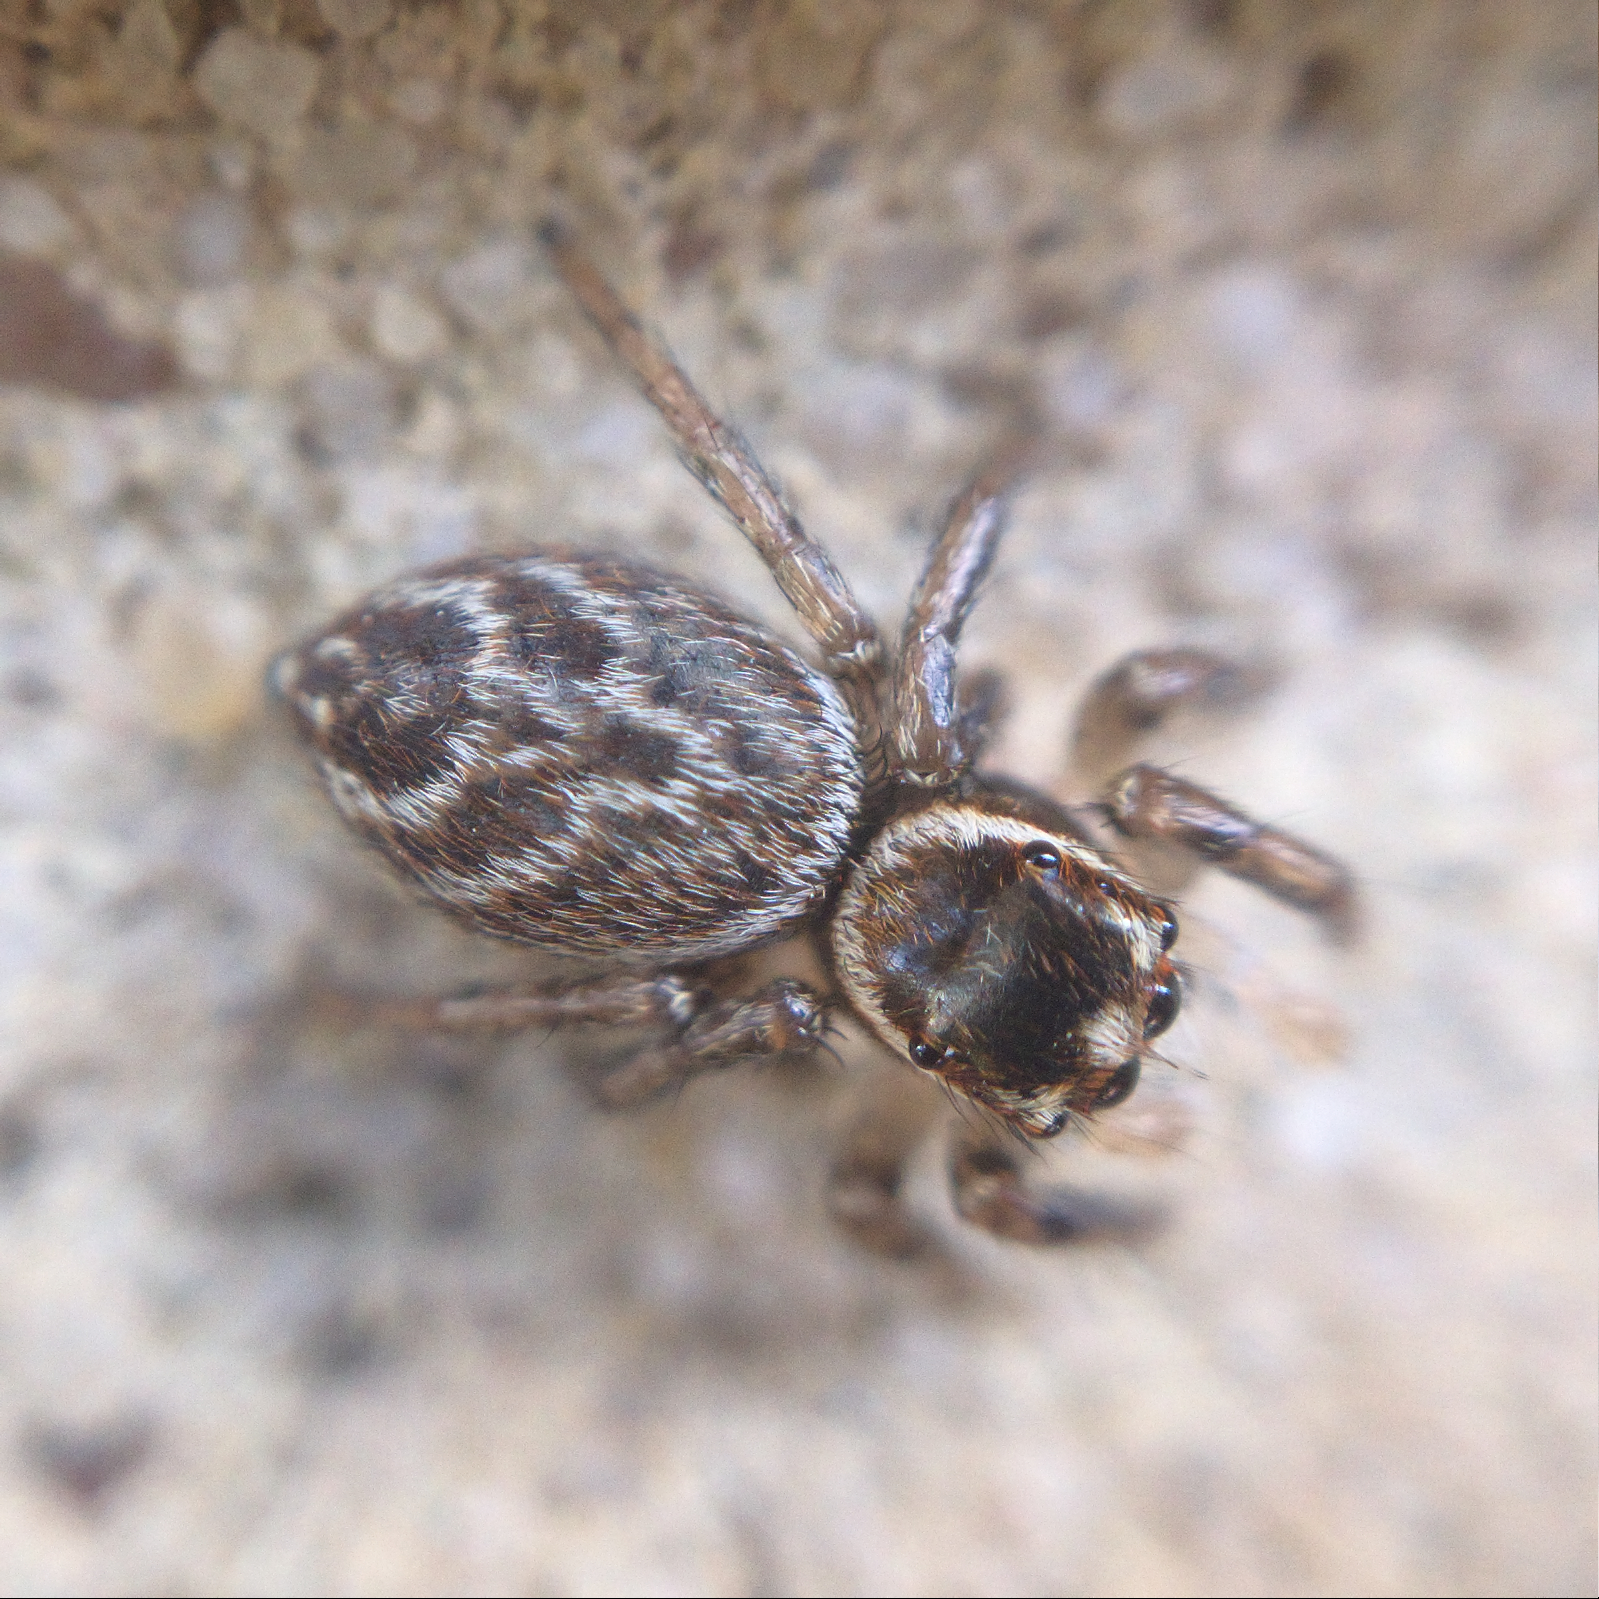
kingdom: Animalia
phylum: Arthropoda
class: Arachnida
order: Araneae
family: Salticidae
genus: Maratus
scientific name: Maratus griseus
